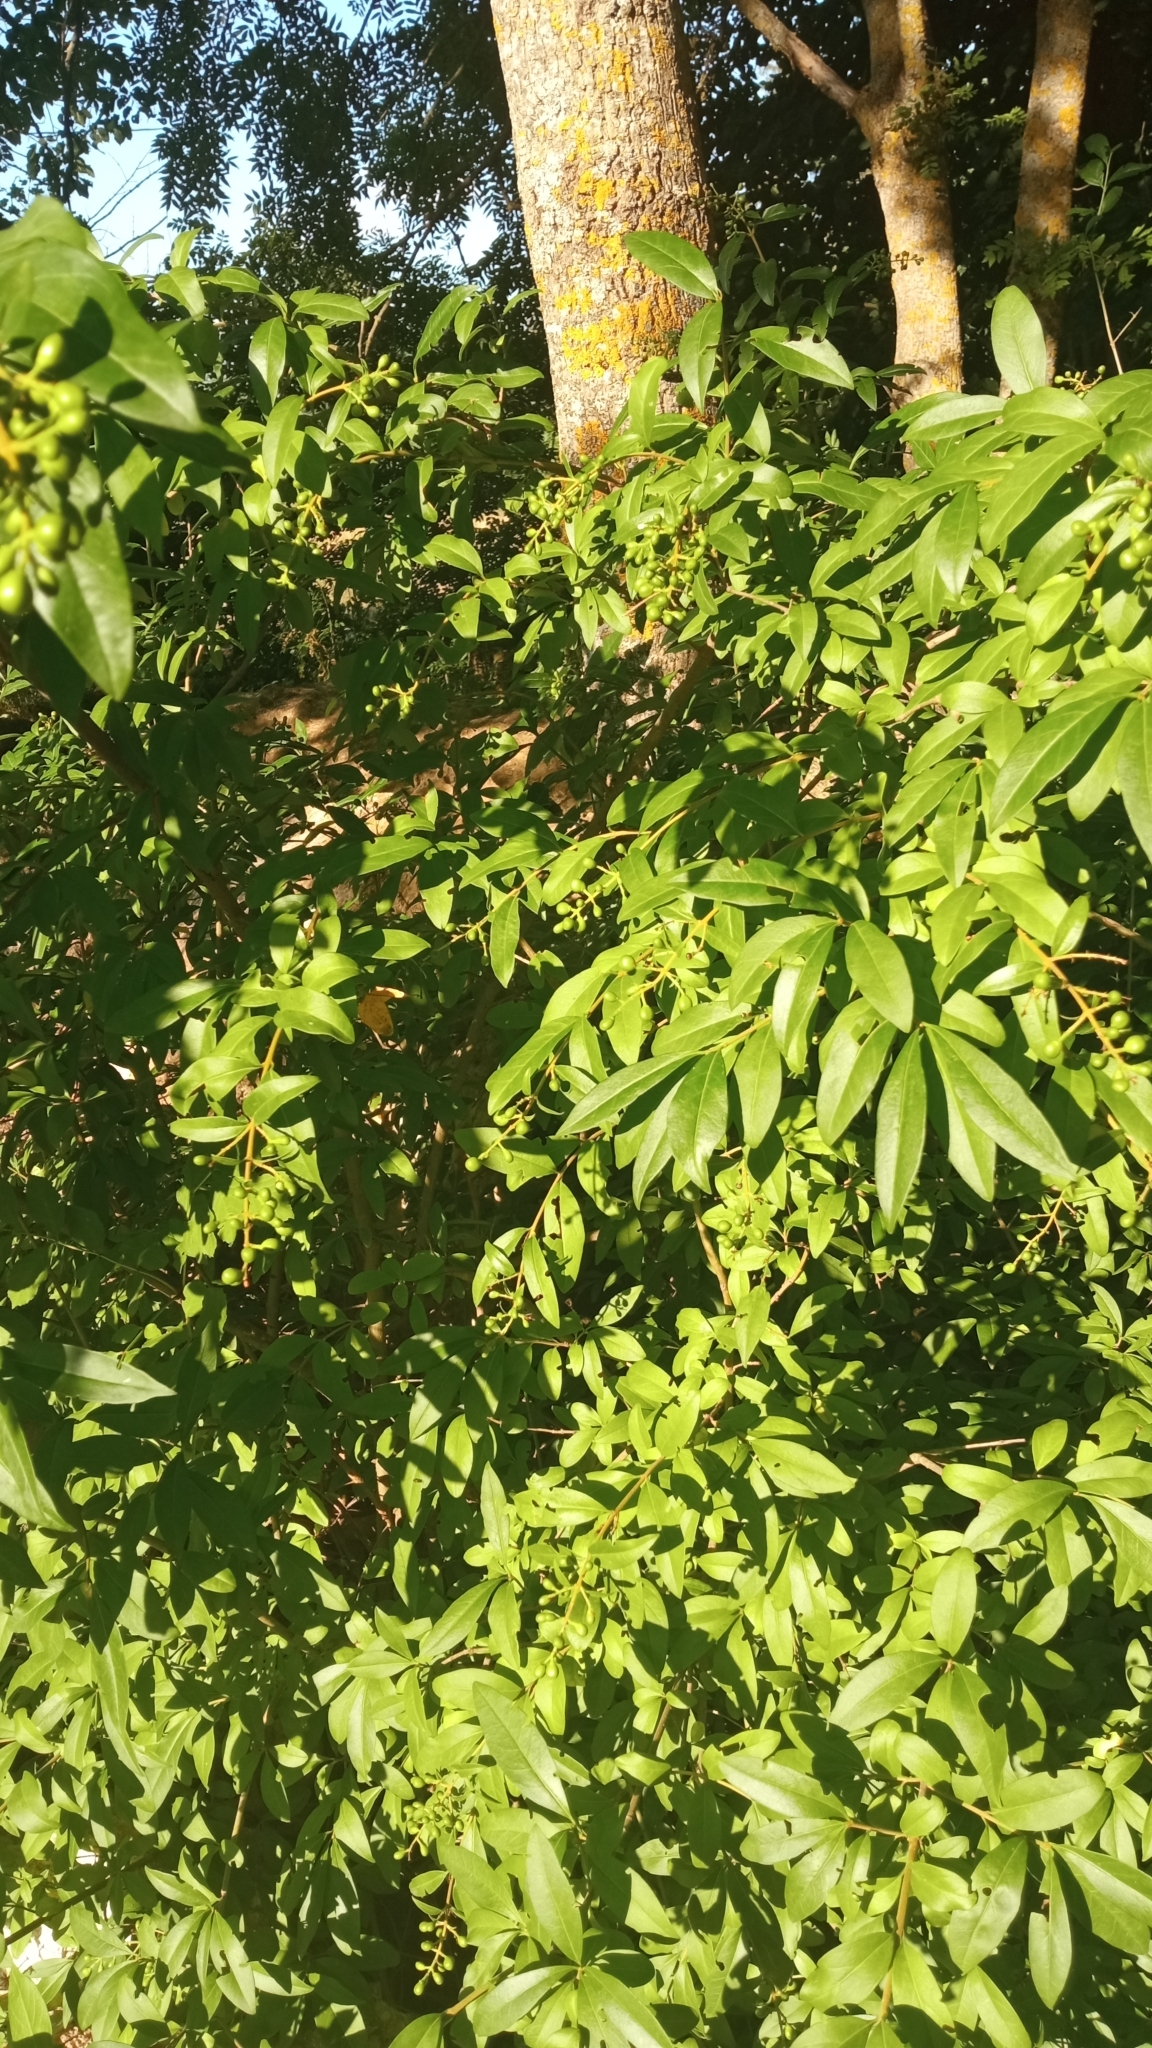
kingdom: Plantae
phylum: Tracheophyta
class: Magnoliopsida
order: Lamiales
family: Oleaceae
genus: Ligustrum
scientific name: Ligustrum vulgare
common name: Wild privet
